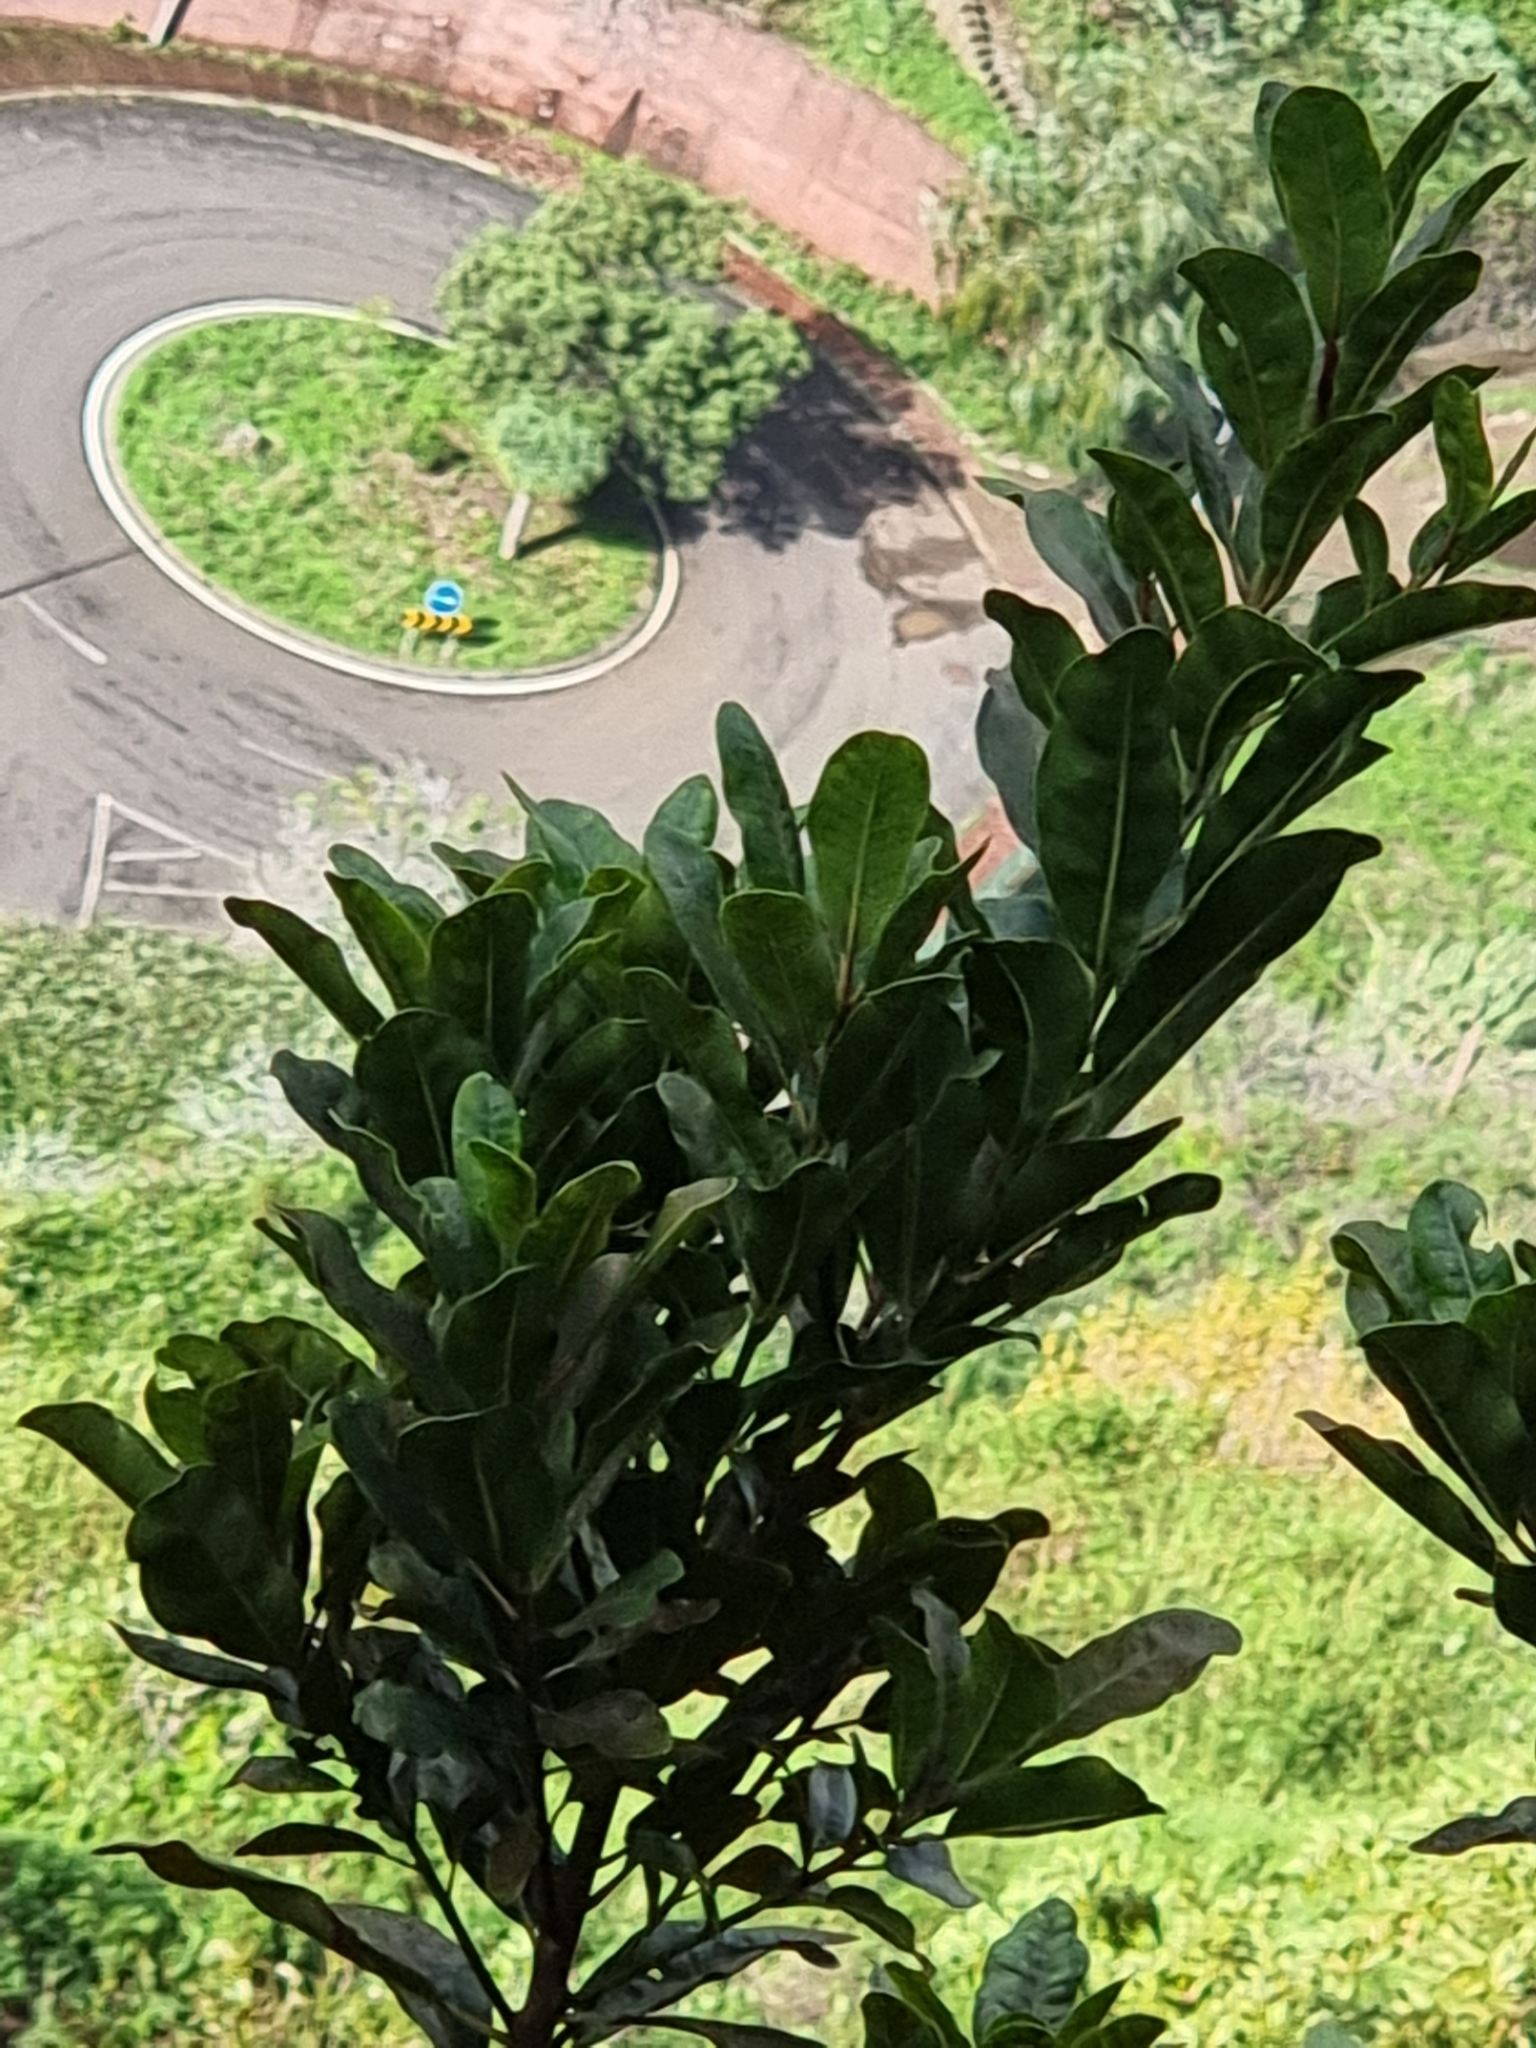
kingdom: Plantae
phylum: Tracheophyta
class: Magnoliopsida
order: Ericales
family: Sapotaceae
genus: Sideroxylon
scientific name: Sideroxylon mirmulans
